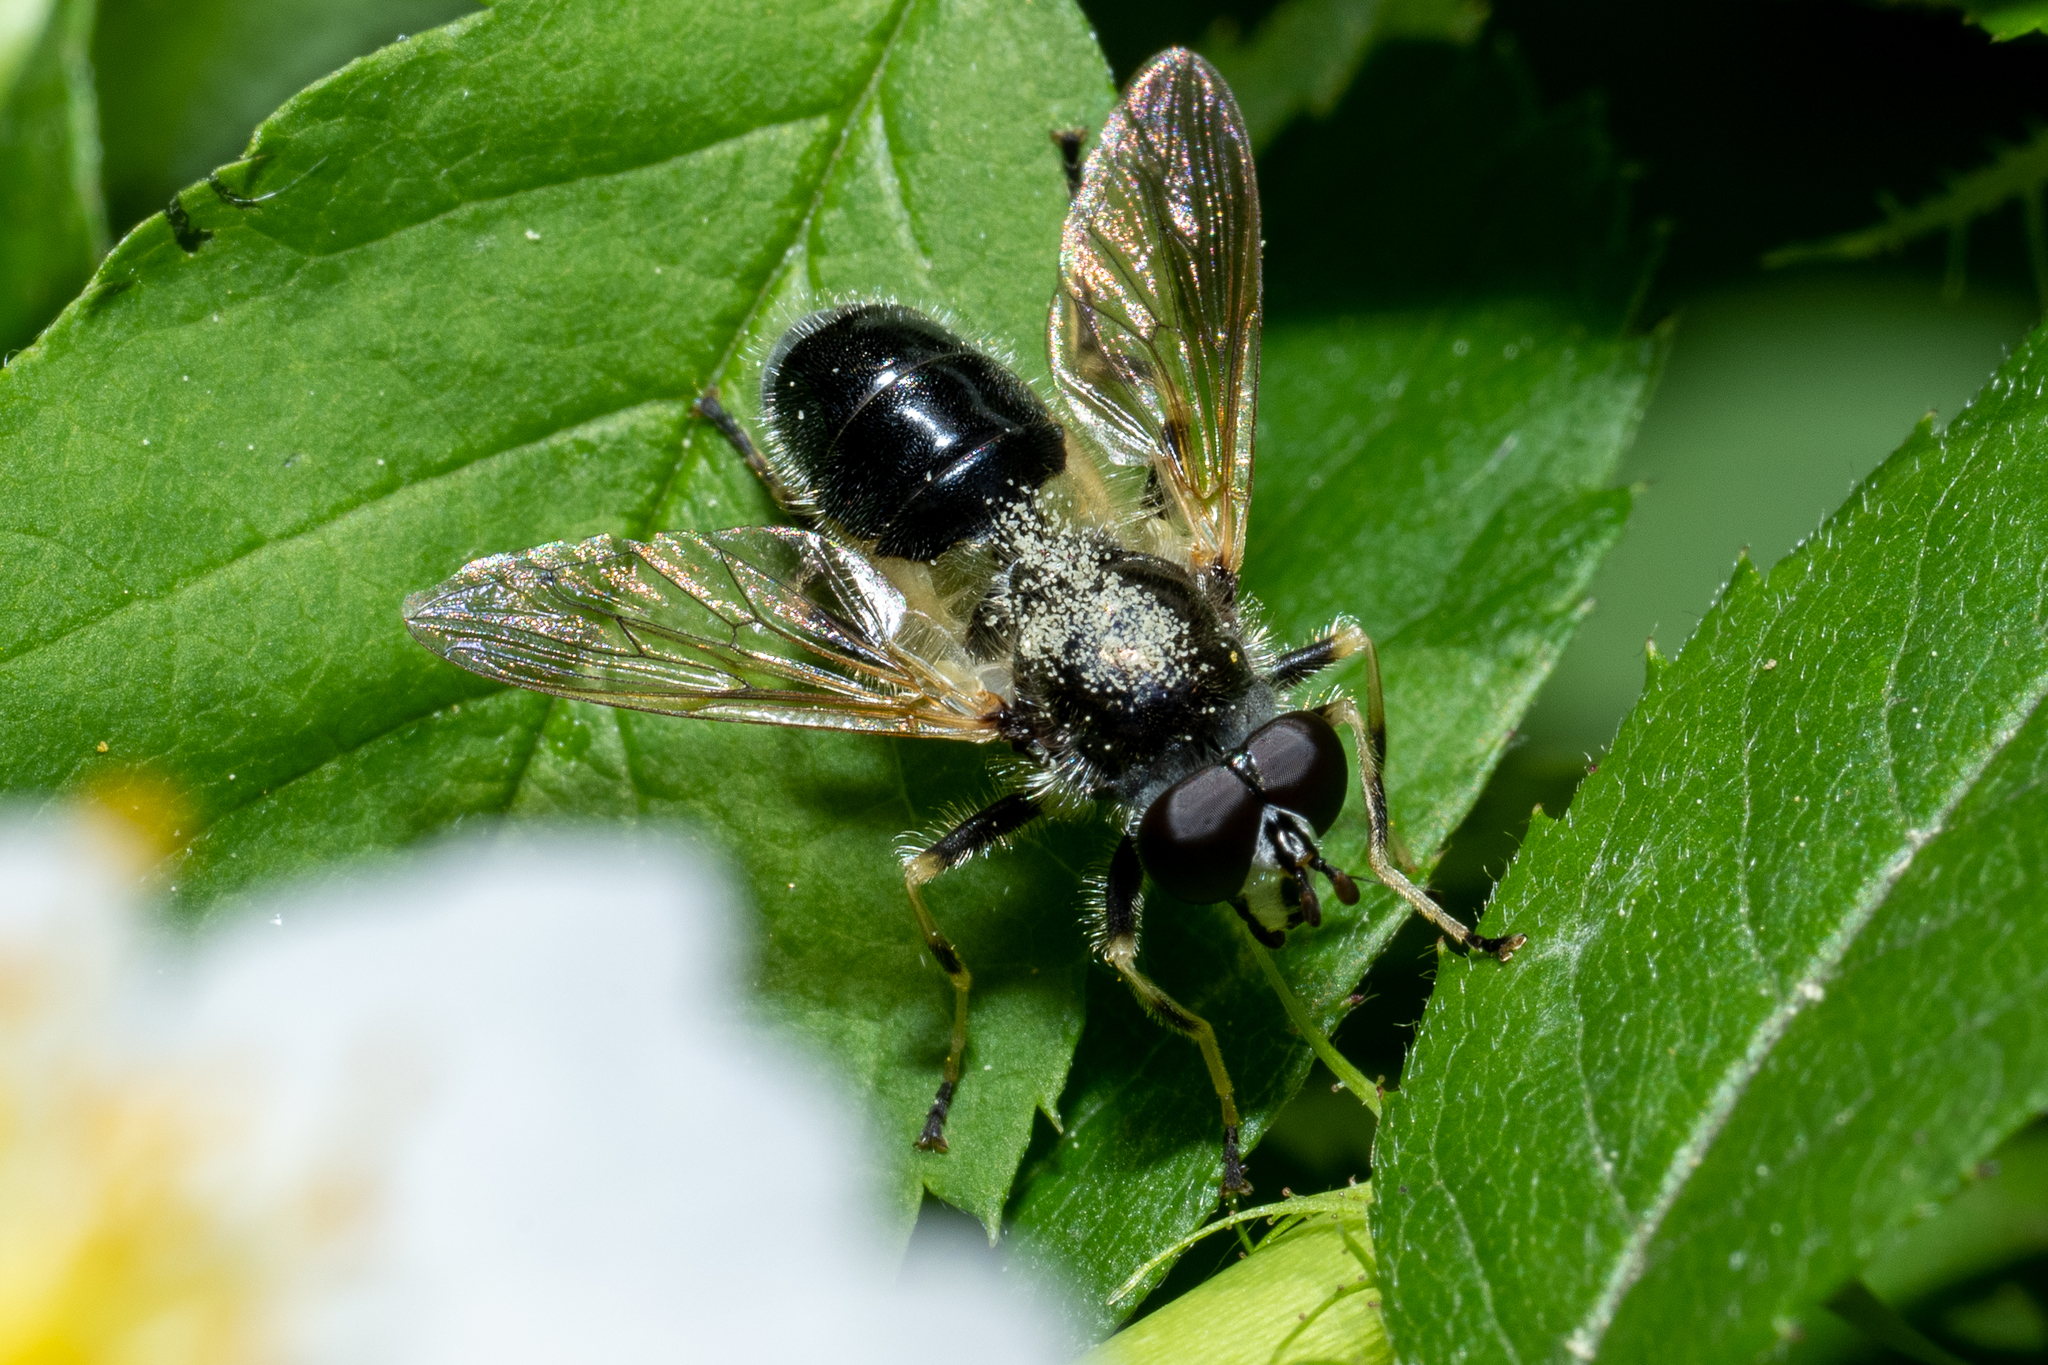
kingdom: Animalia
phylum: Arthropoda
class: Insecta
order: Diptera
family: Syrphidae
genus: Blera
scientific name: Blera badia
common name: Common wood fly
